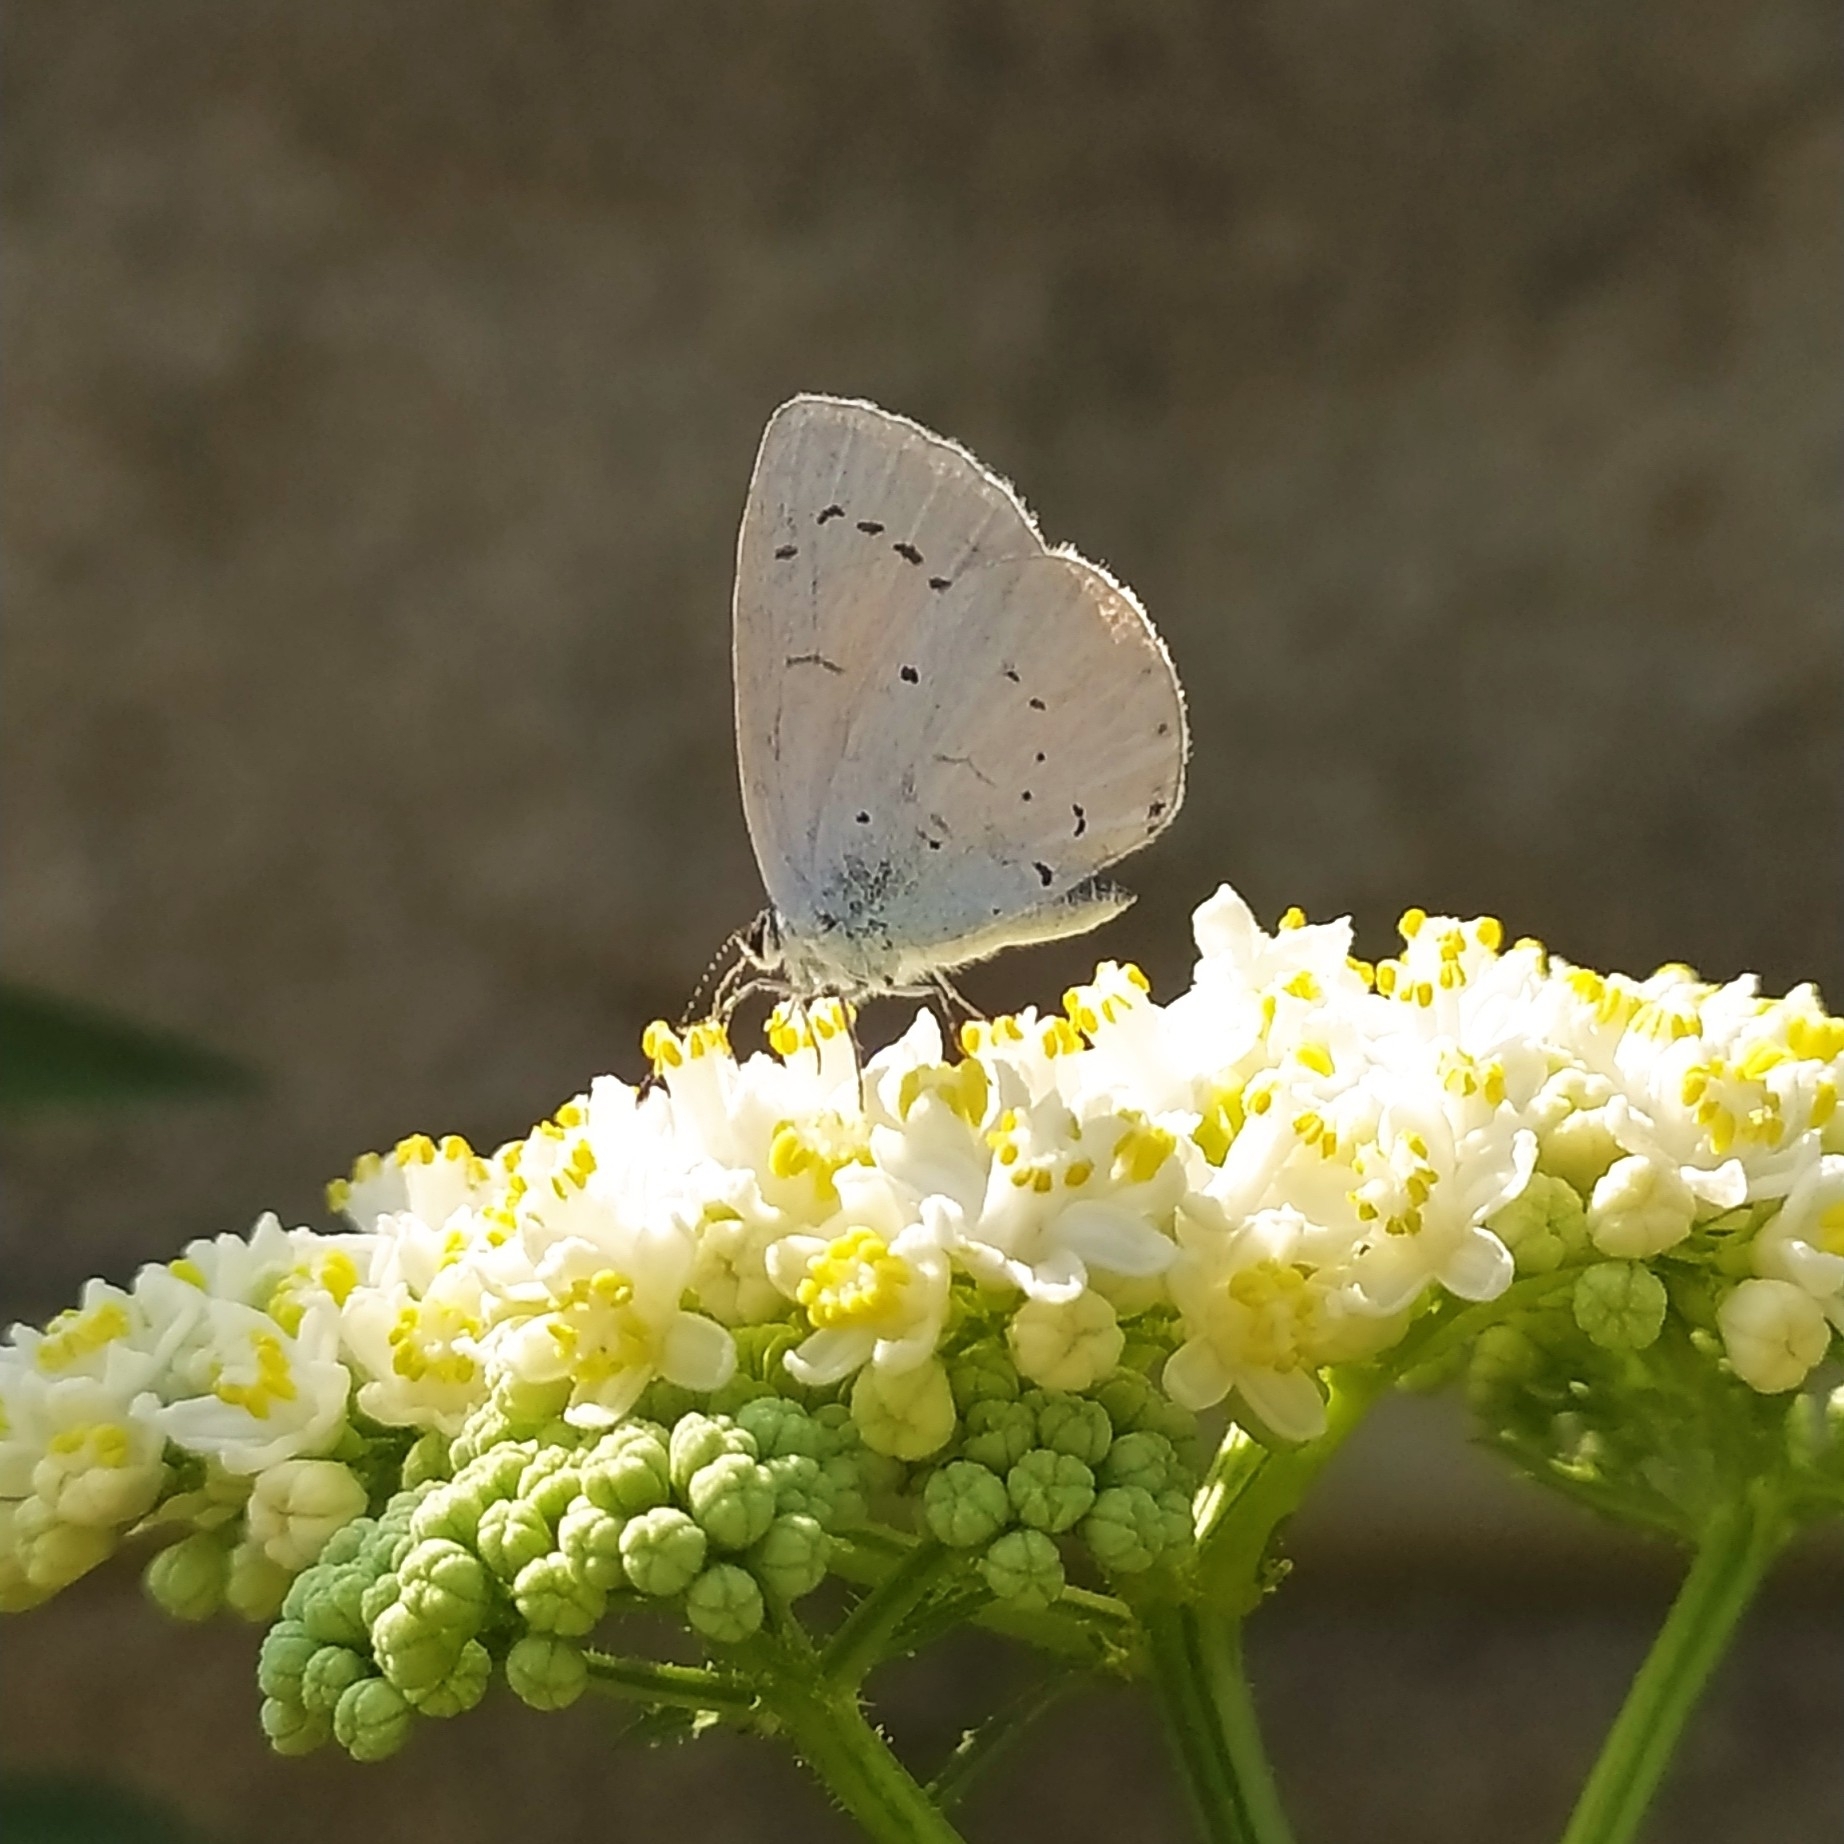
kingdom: Animalia
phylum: Arthropoda
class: Insecta
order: Lepidoptera
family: Lycaenidae
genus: Celastrina
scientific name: Celastrina argiolus
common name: Holly blue
